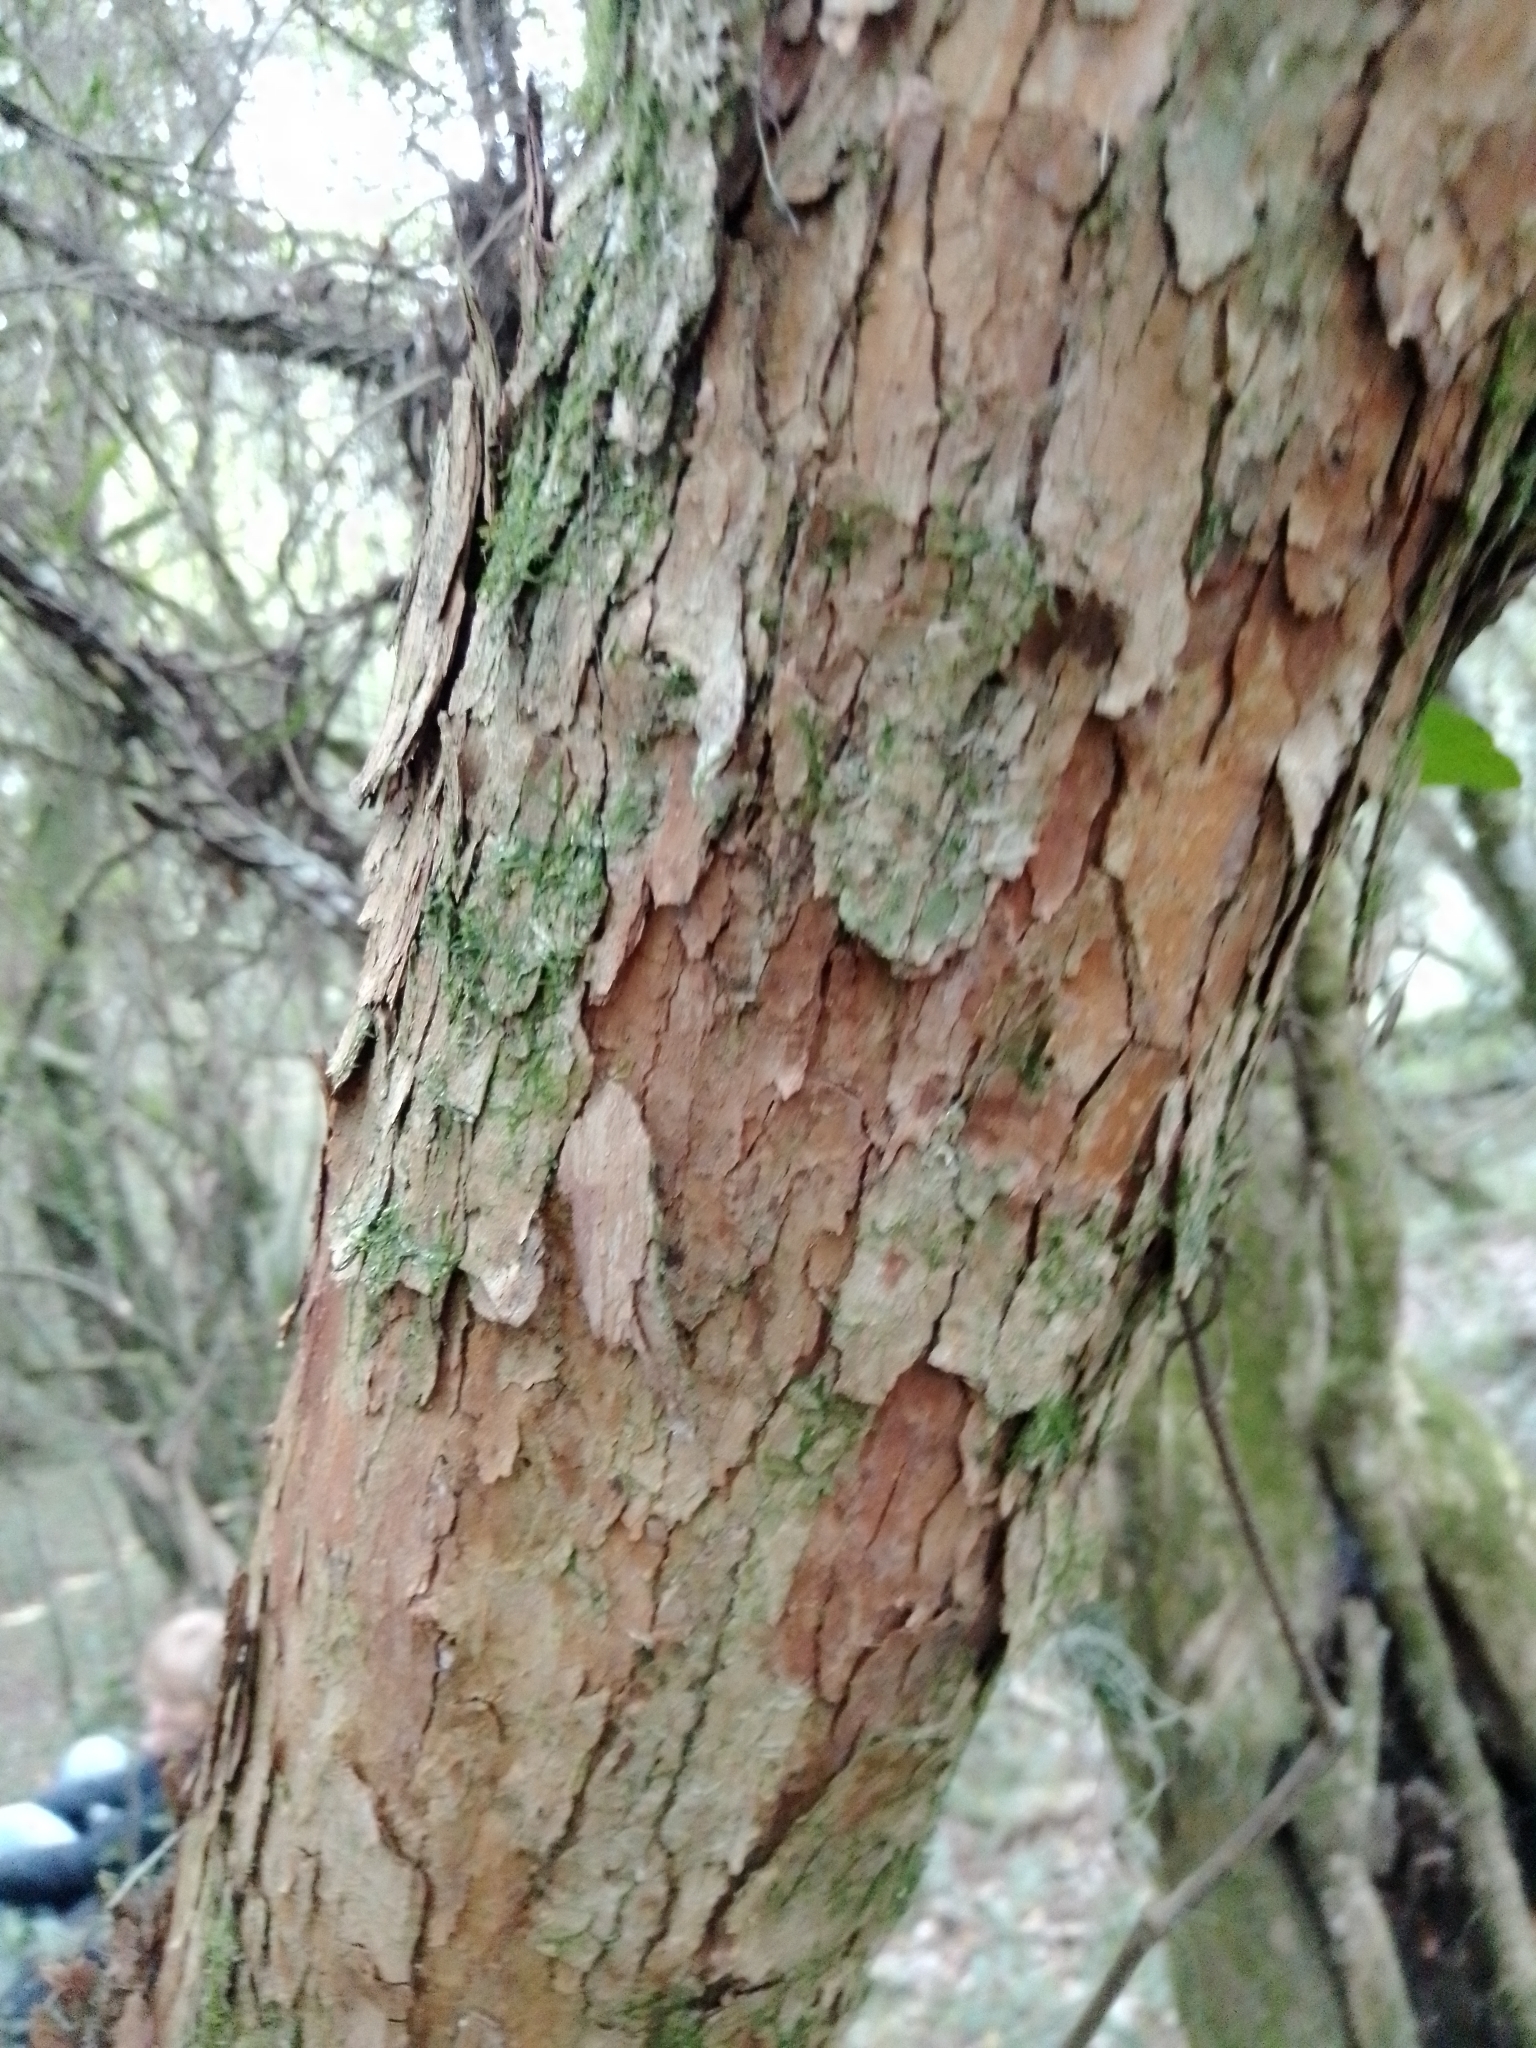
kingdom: Plantae
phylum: Tracheophyta
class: Magnoliopsida
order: Sapindales
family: Sapindaceae
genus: Allophylus
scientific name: Allophylus edulis
